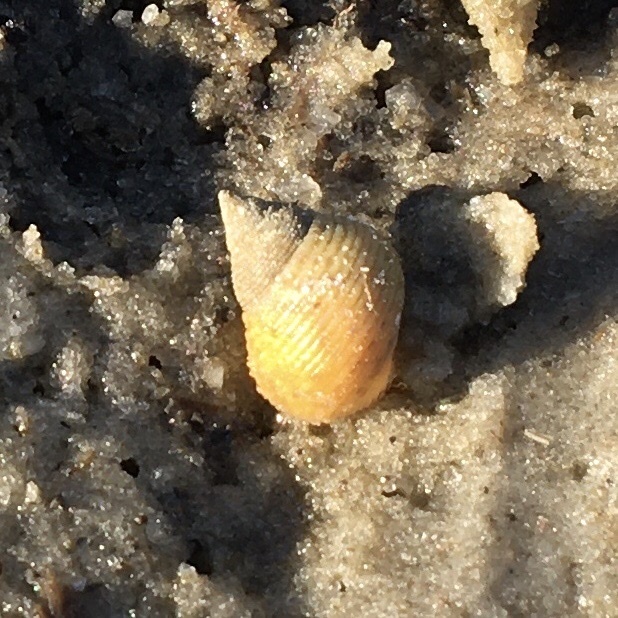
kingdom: Animalia
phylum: Mollusca
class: Gastropoda
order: Littorinimorpha
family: Littorinidae
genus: Littoraria
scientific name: Littoraria irrorata
